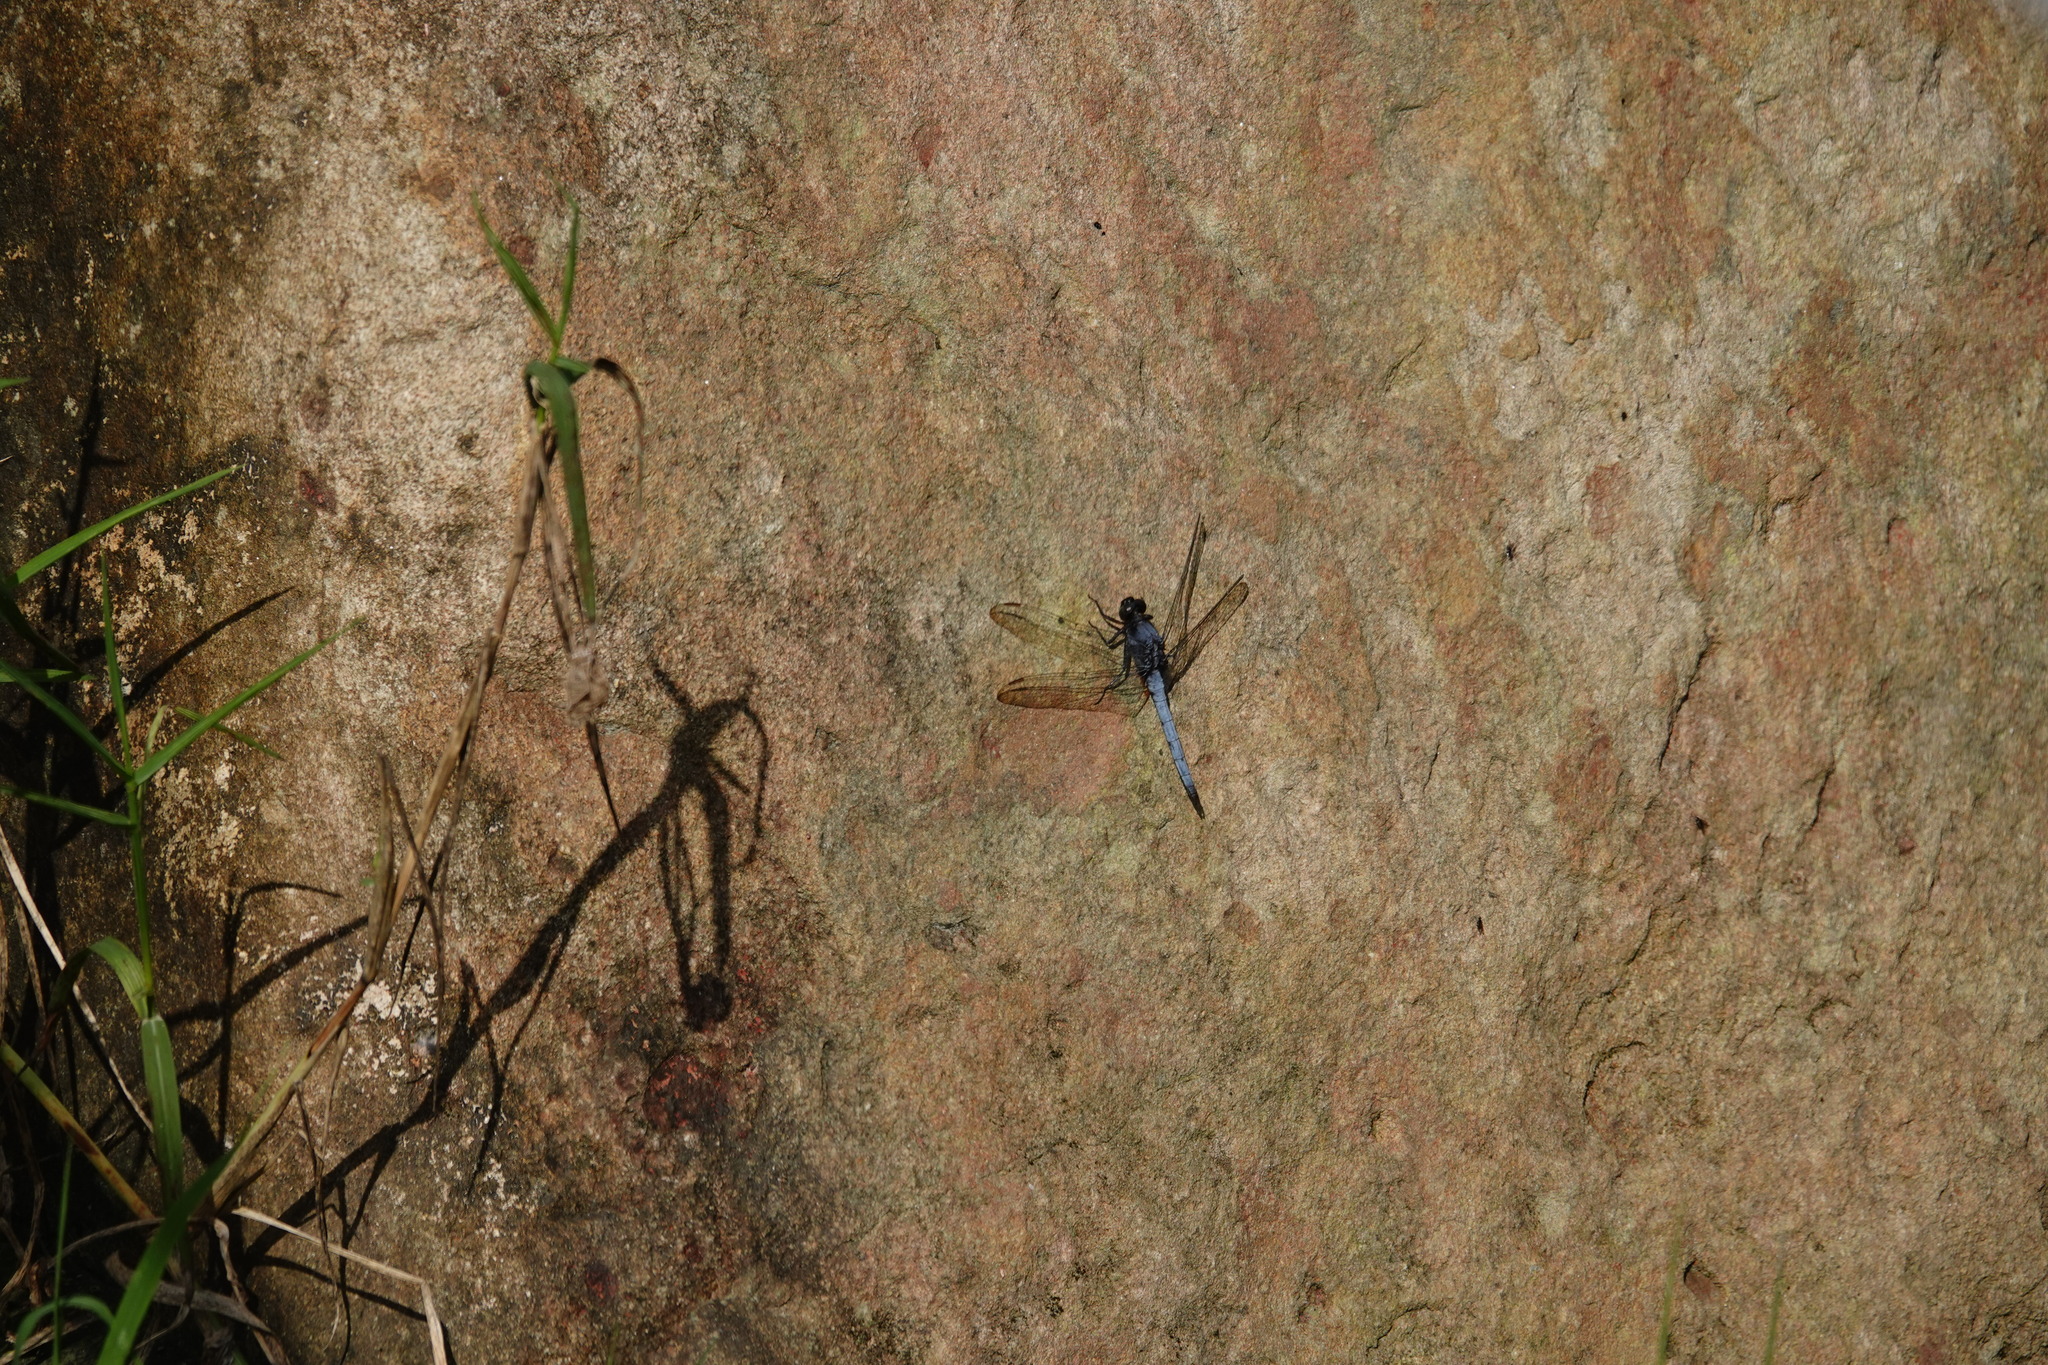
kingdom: Animalia
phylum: Arthropoda
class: Insecta
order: Odonata
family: Libellulidae
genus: Orthetrum
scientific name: Orthetrum glaucum
